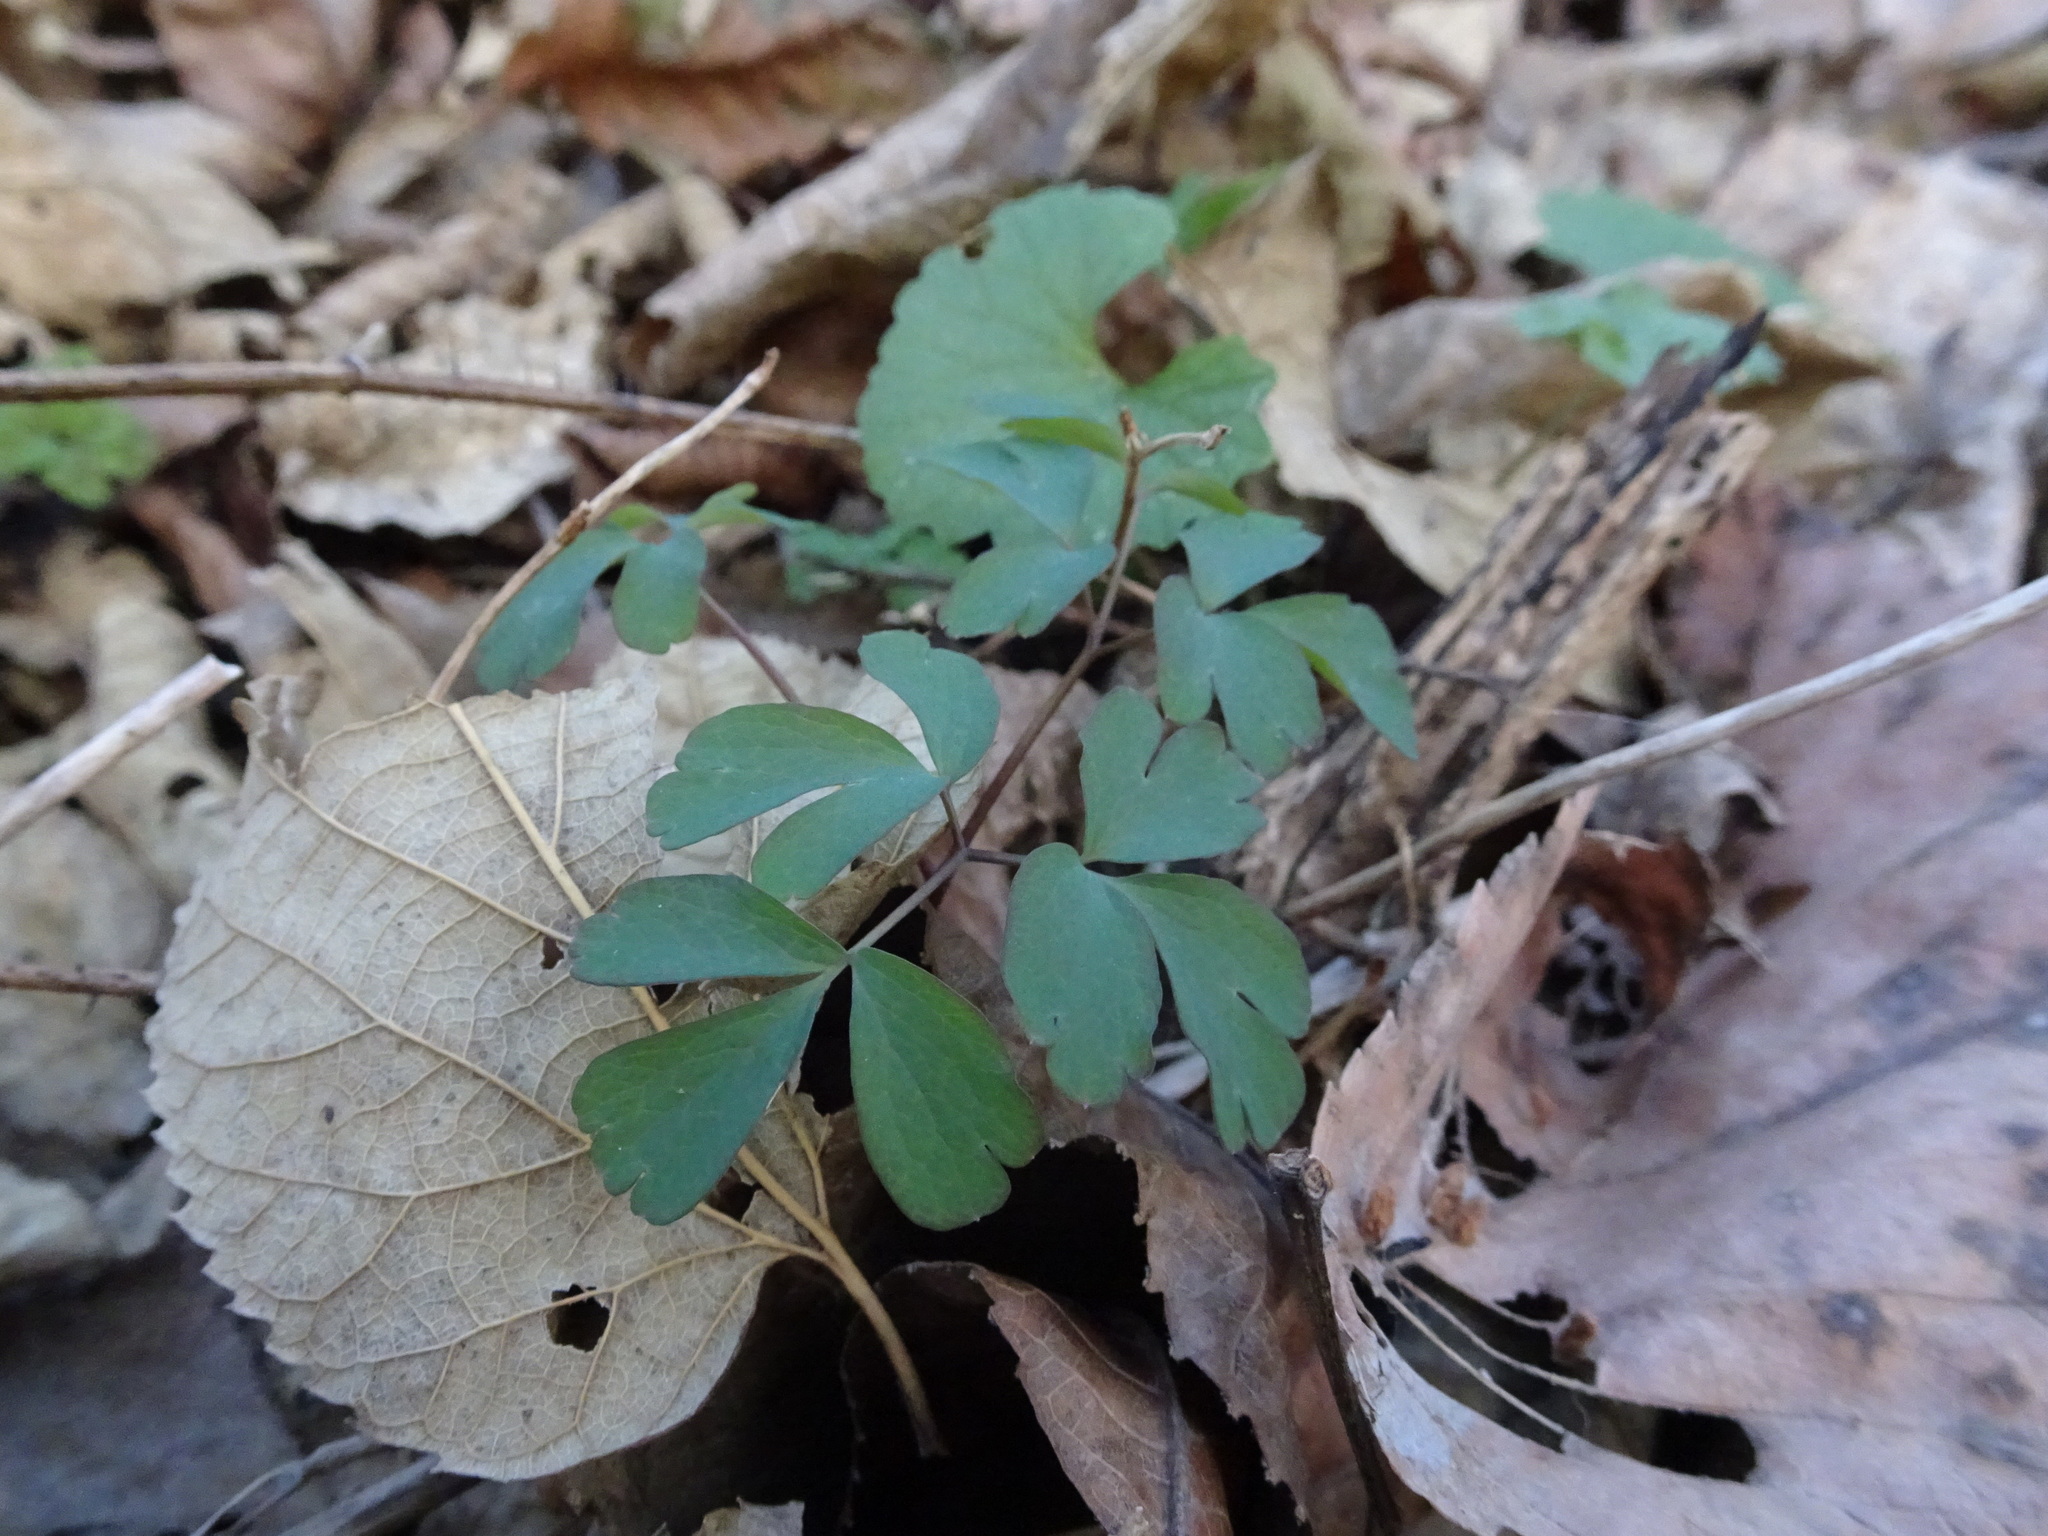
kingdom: Plantae
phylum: Tracheophyta
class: Magnoliopsida
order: Ranunculales
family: Ranunculaceae
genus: Enemion
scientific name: Enemion biternatum
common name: Eastern false rue-anemone
